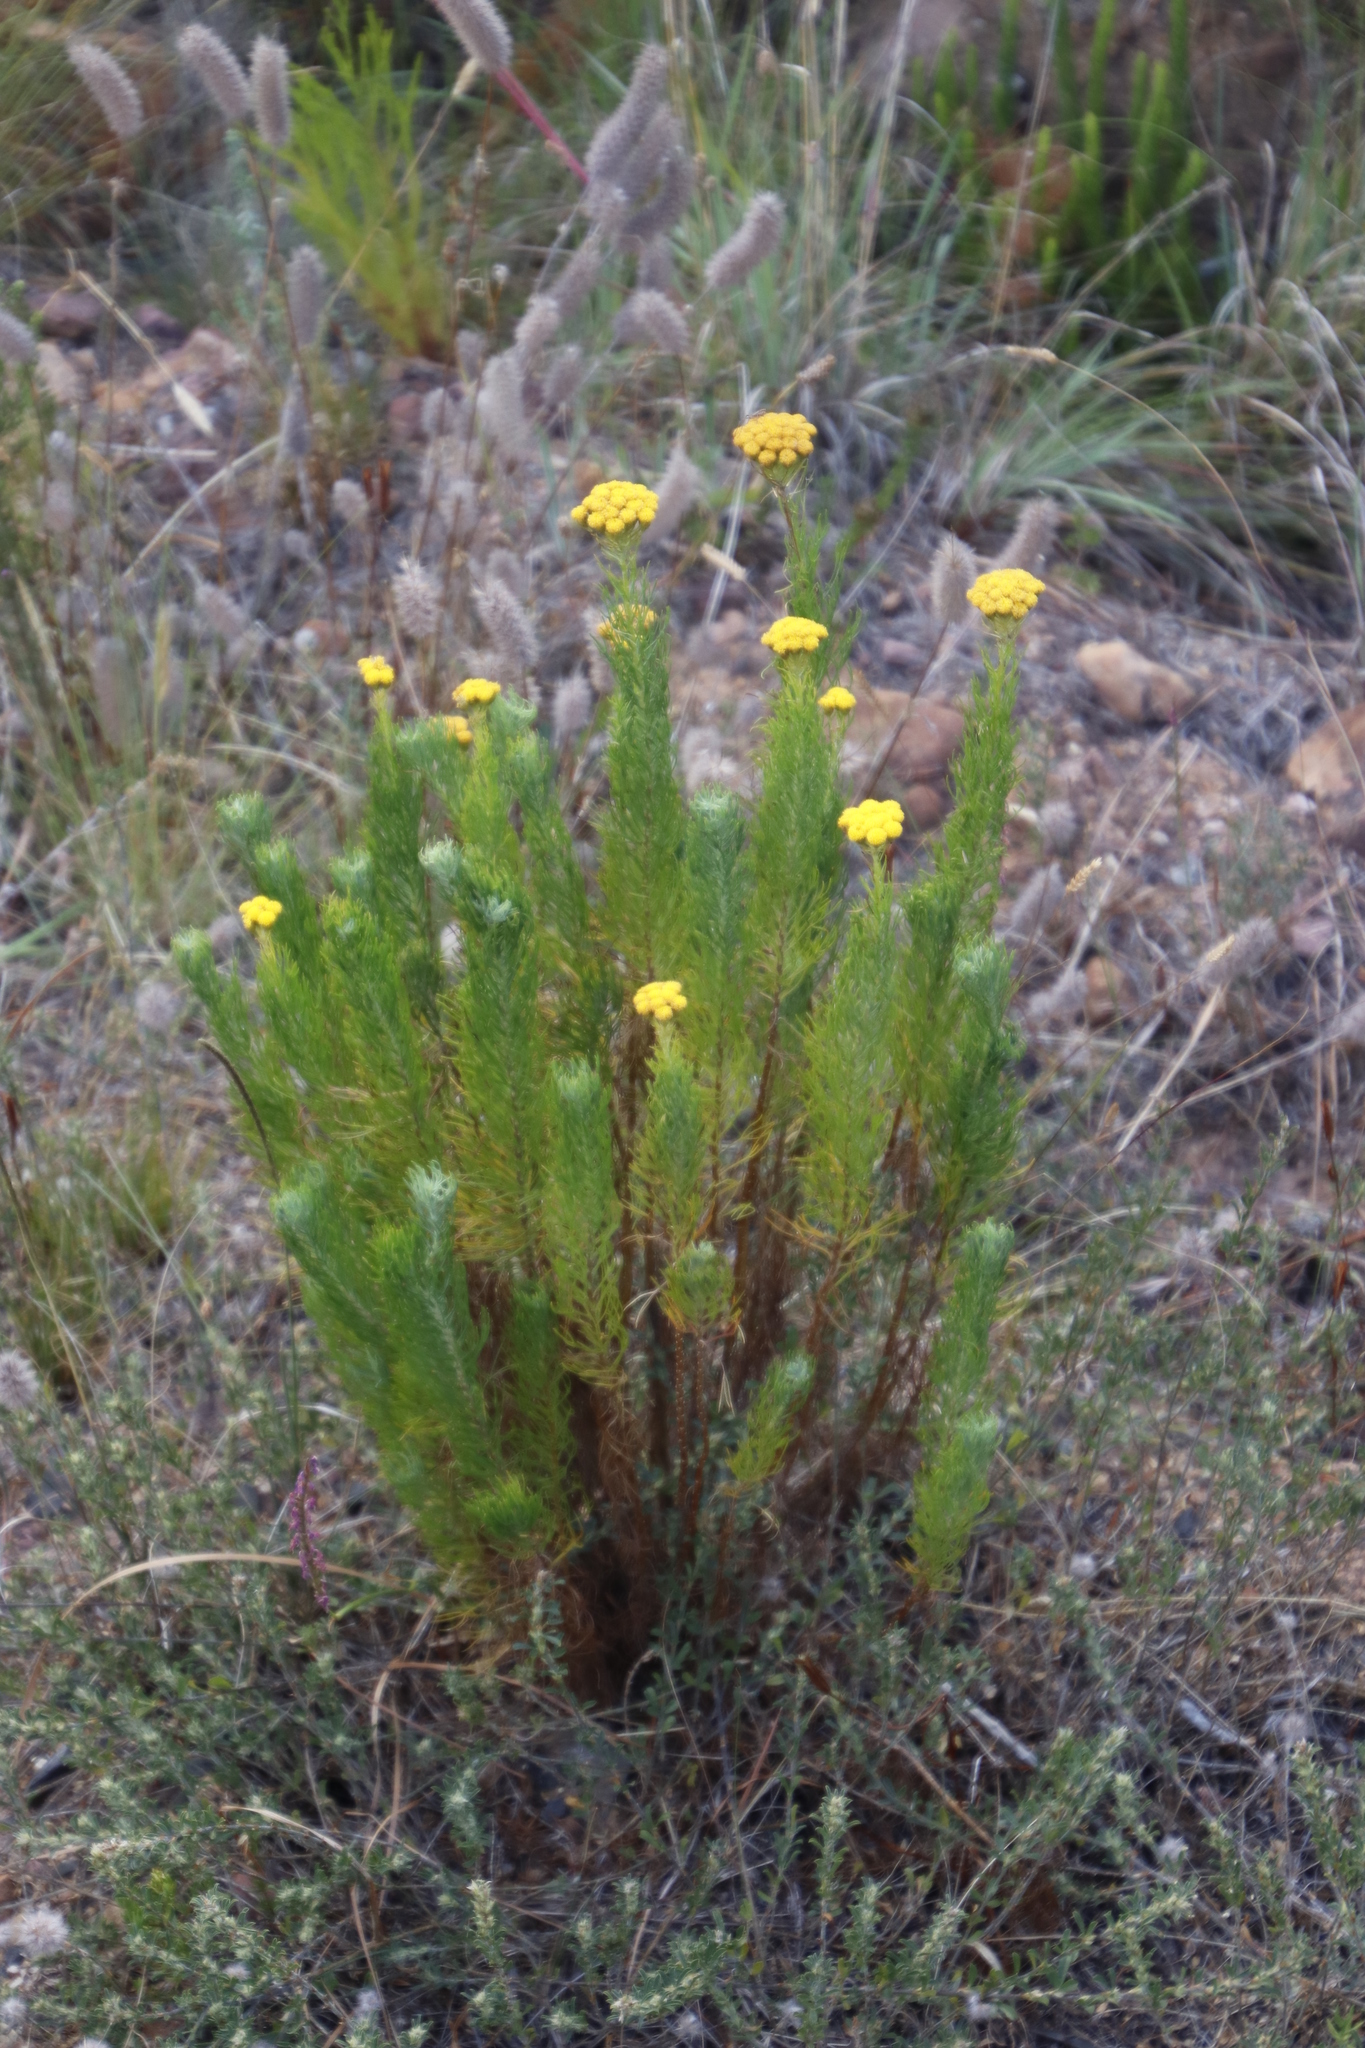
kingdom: Plantae
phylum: Tracheophyta
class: Magnoliopsida
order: Asterales
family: Asteraceae
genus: Athanasia
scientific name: Athanasia crithmifolia
